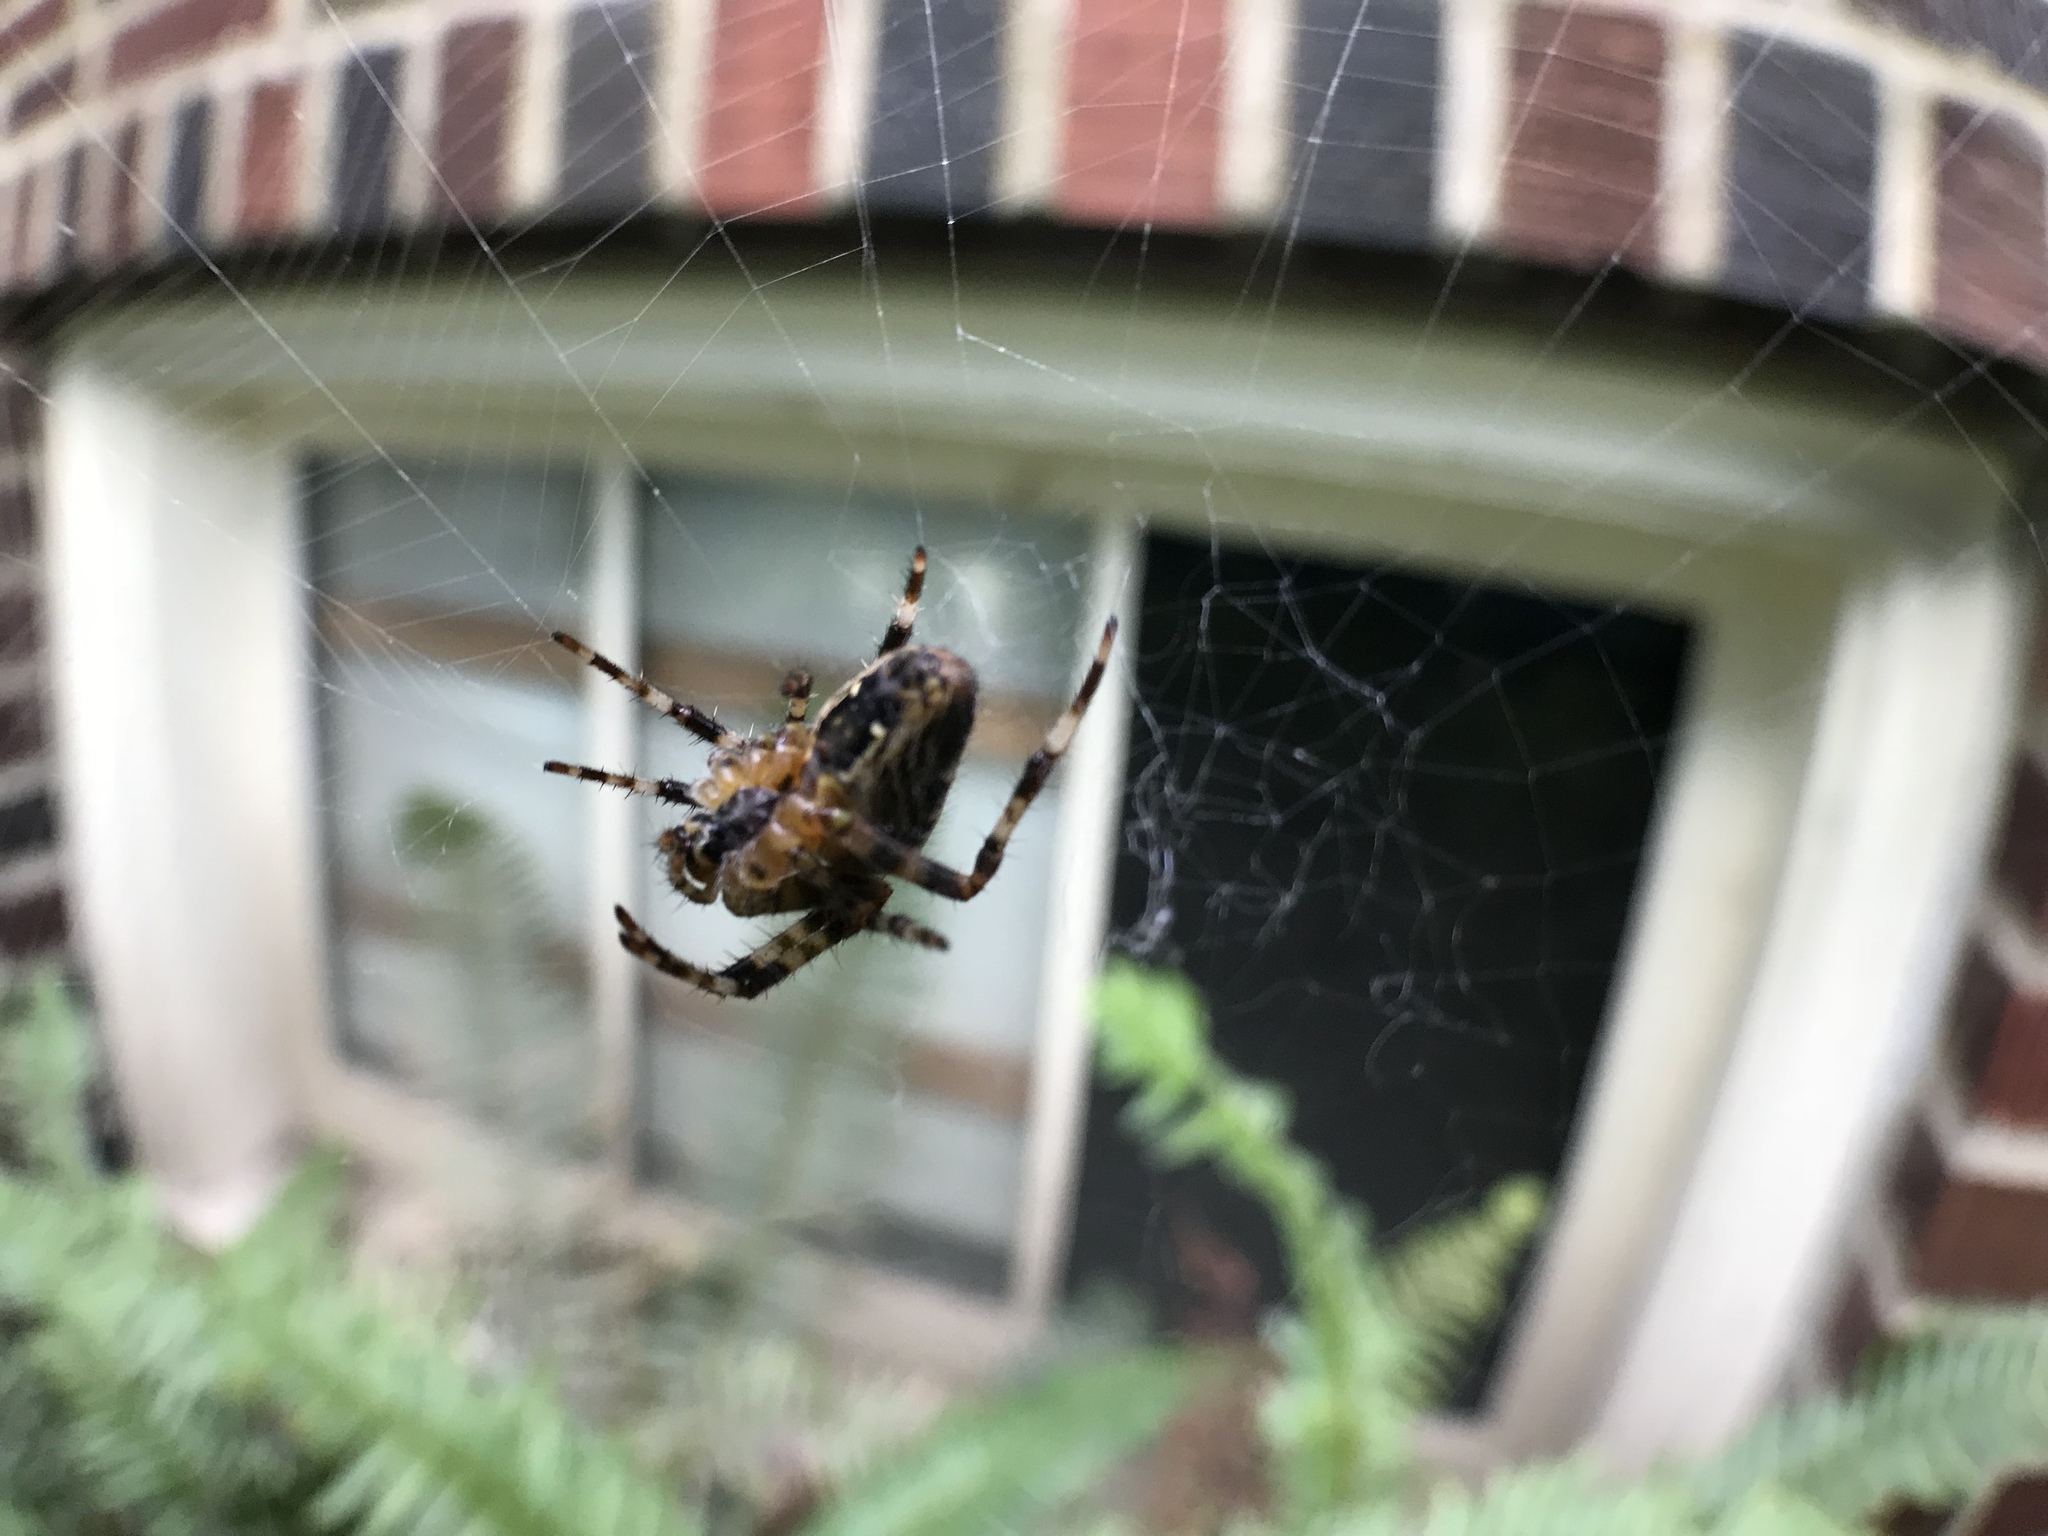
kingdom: Animalia
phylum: Arthropoda
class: Arachnida
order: Araneae
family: Araneidae
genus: Araneus
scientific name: Araneus diadematus
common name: Cross orbweaver
